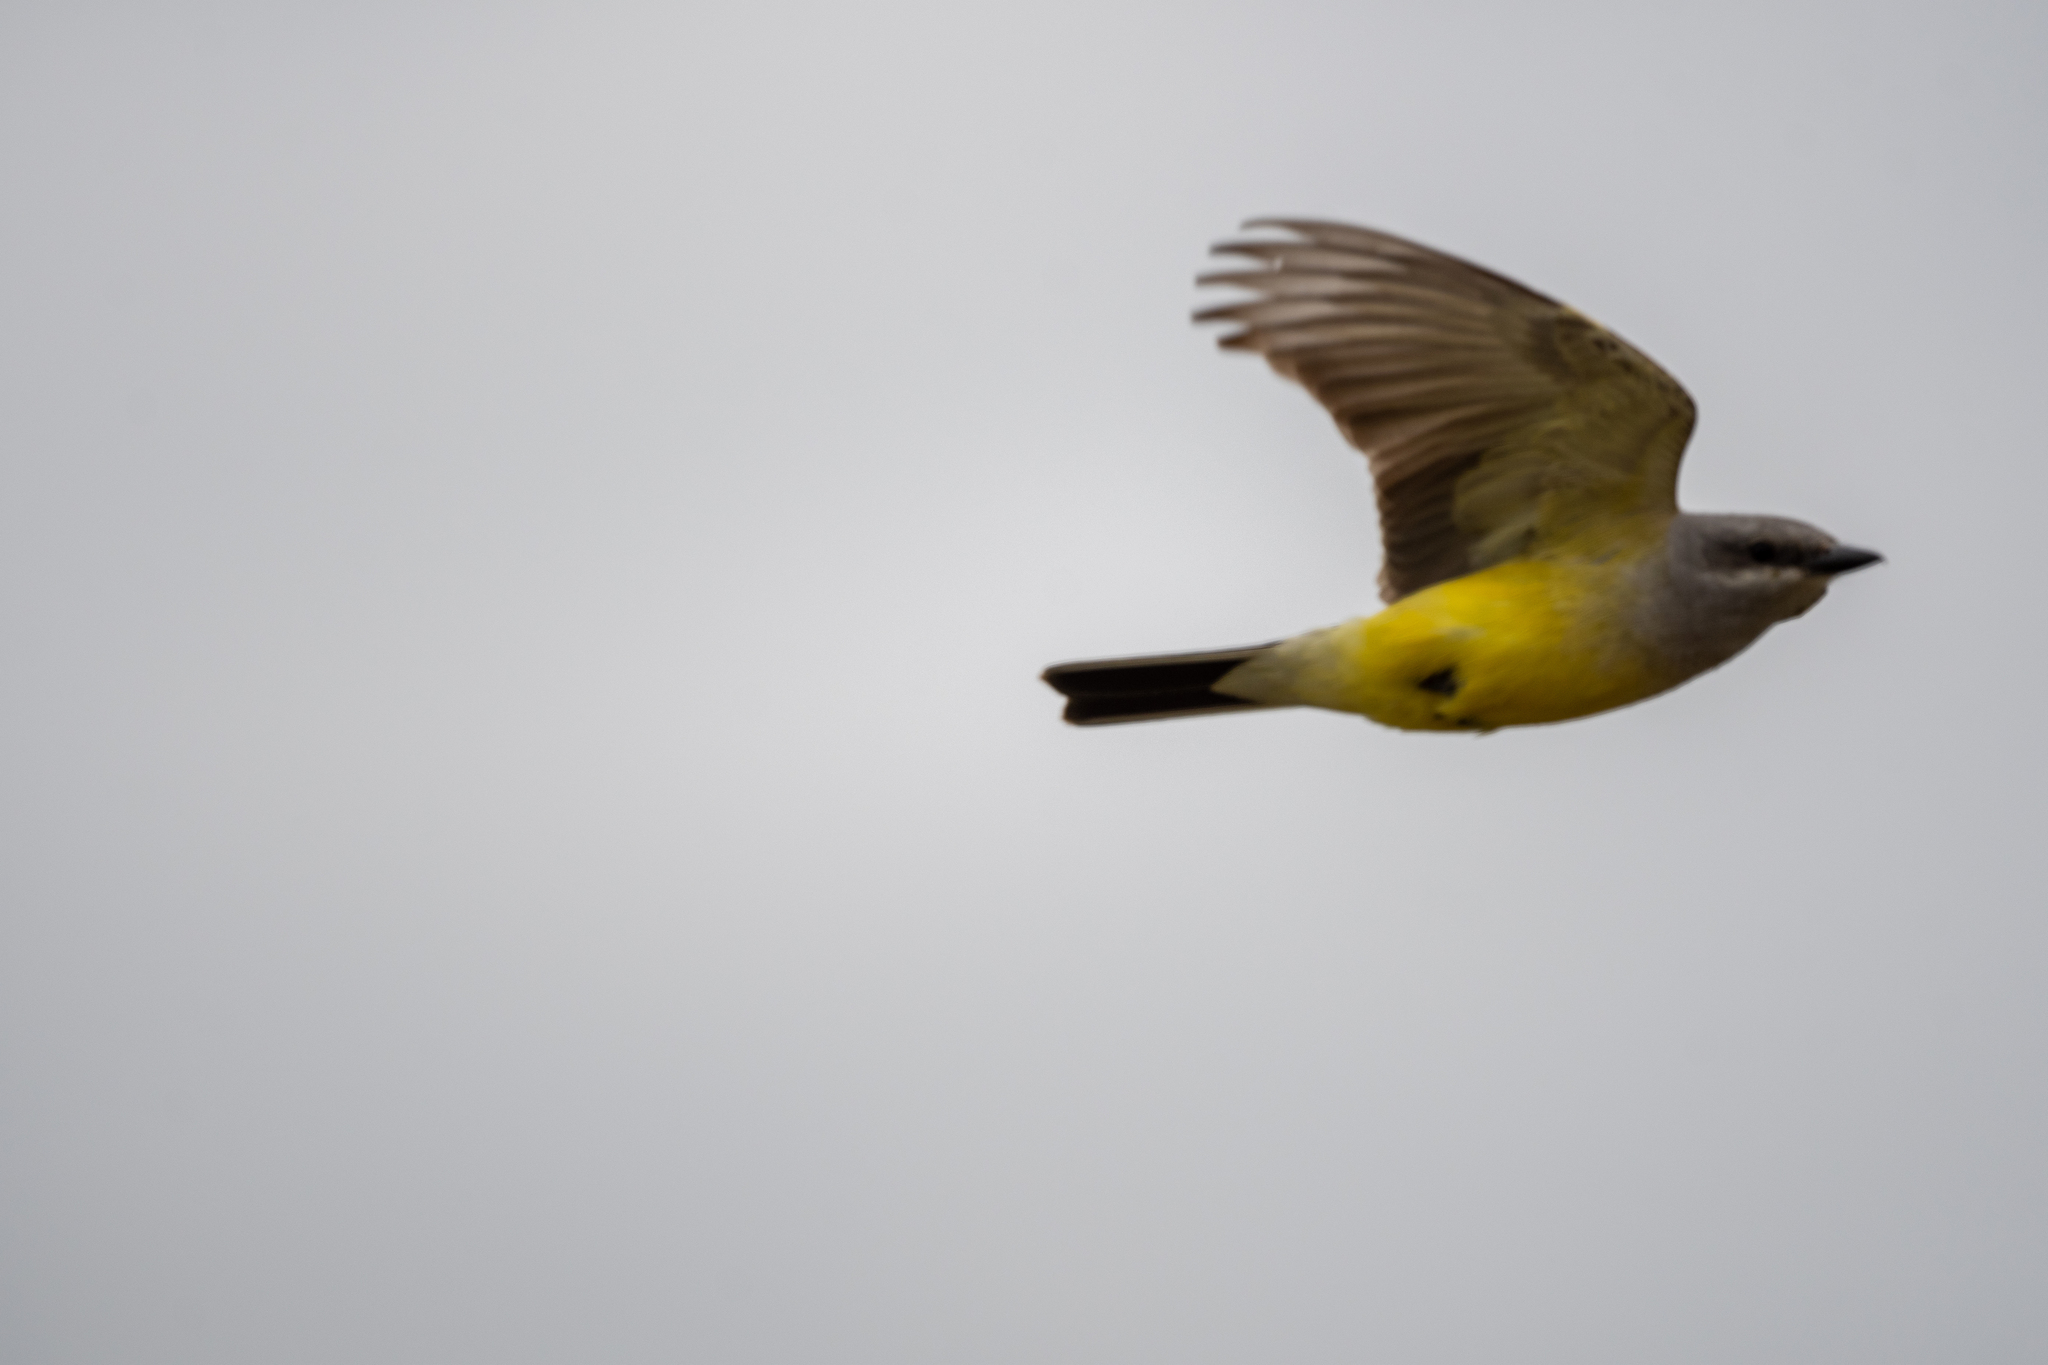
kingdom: Animalia
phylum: Chordata
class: Aves
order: Passeriformes
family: Tyrannidae
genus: Tyrannus
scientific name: Tyrannus verticalis
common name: Western kingbird
